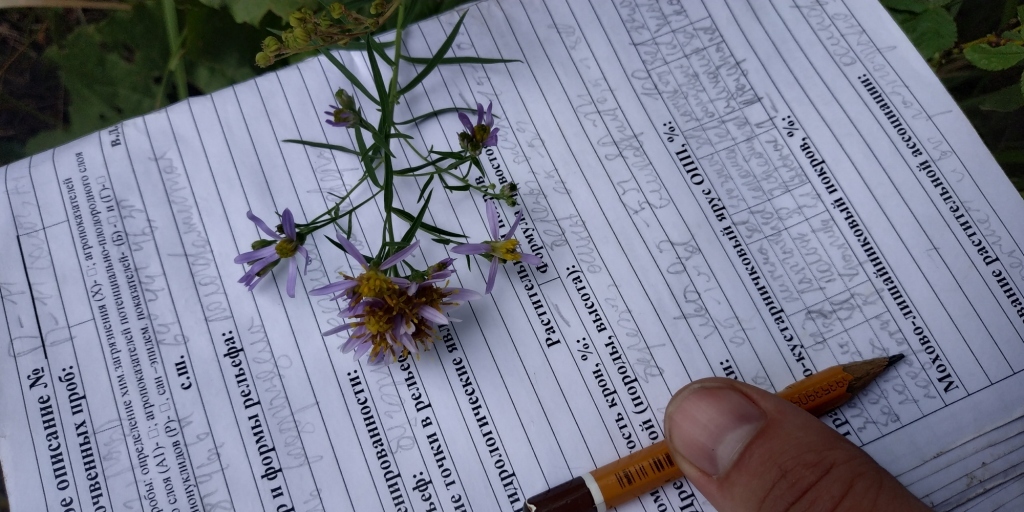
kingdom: Plantae
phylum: Tracheophyta
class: Magnoliopsida
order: Asterales
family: Asteraceae
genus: Galatella
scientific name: Galatella sedifolia
